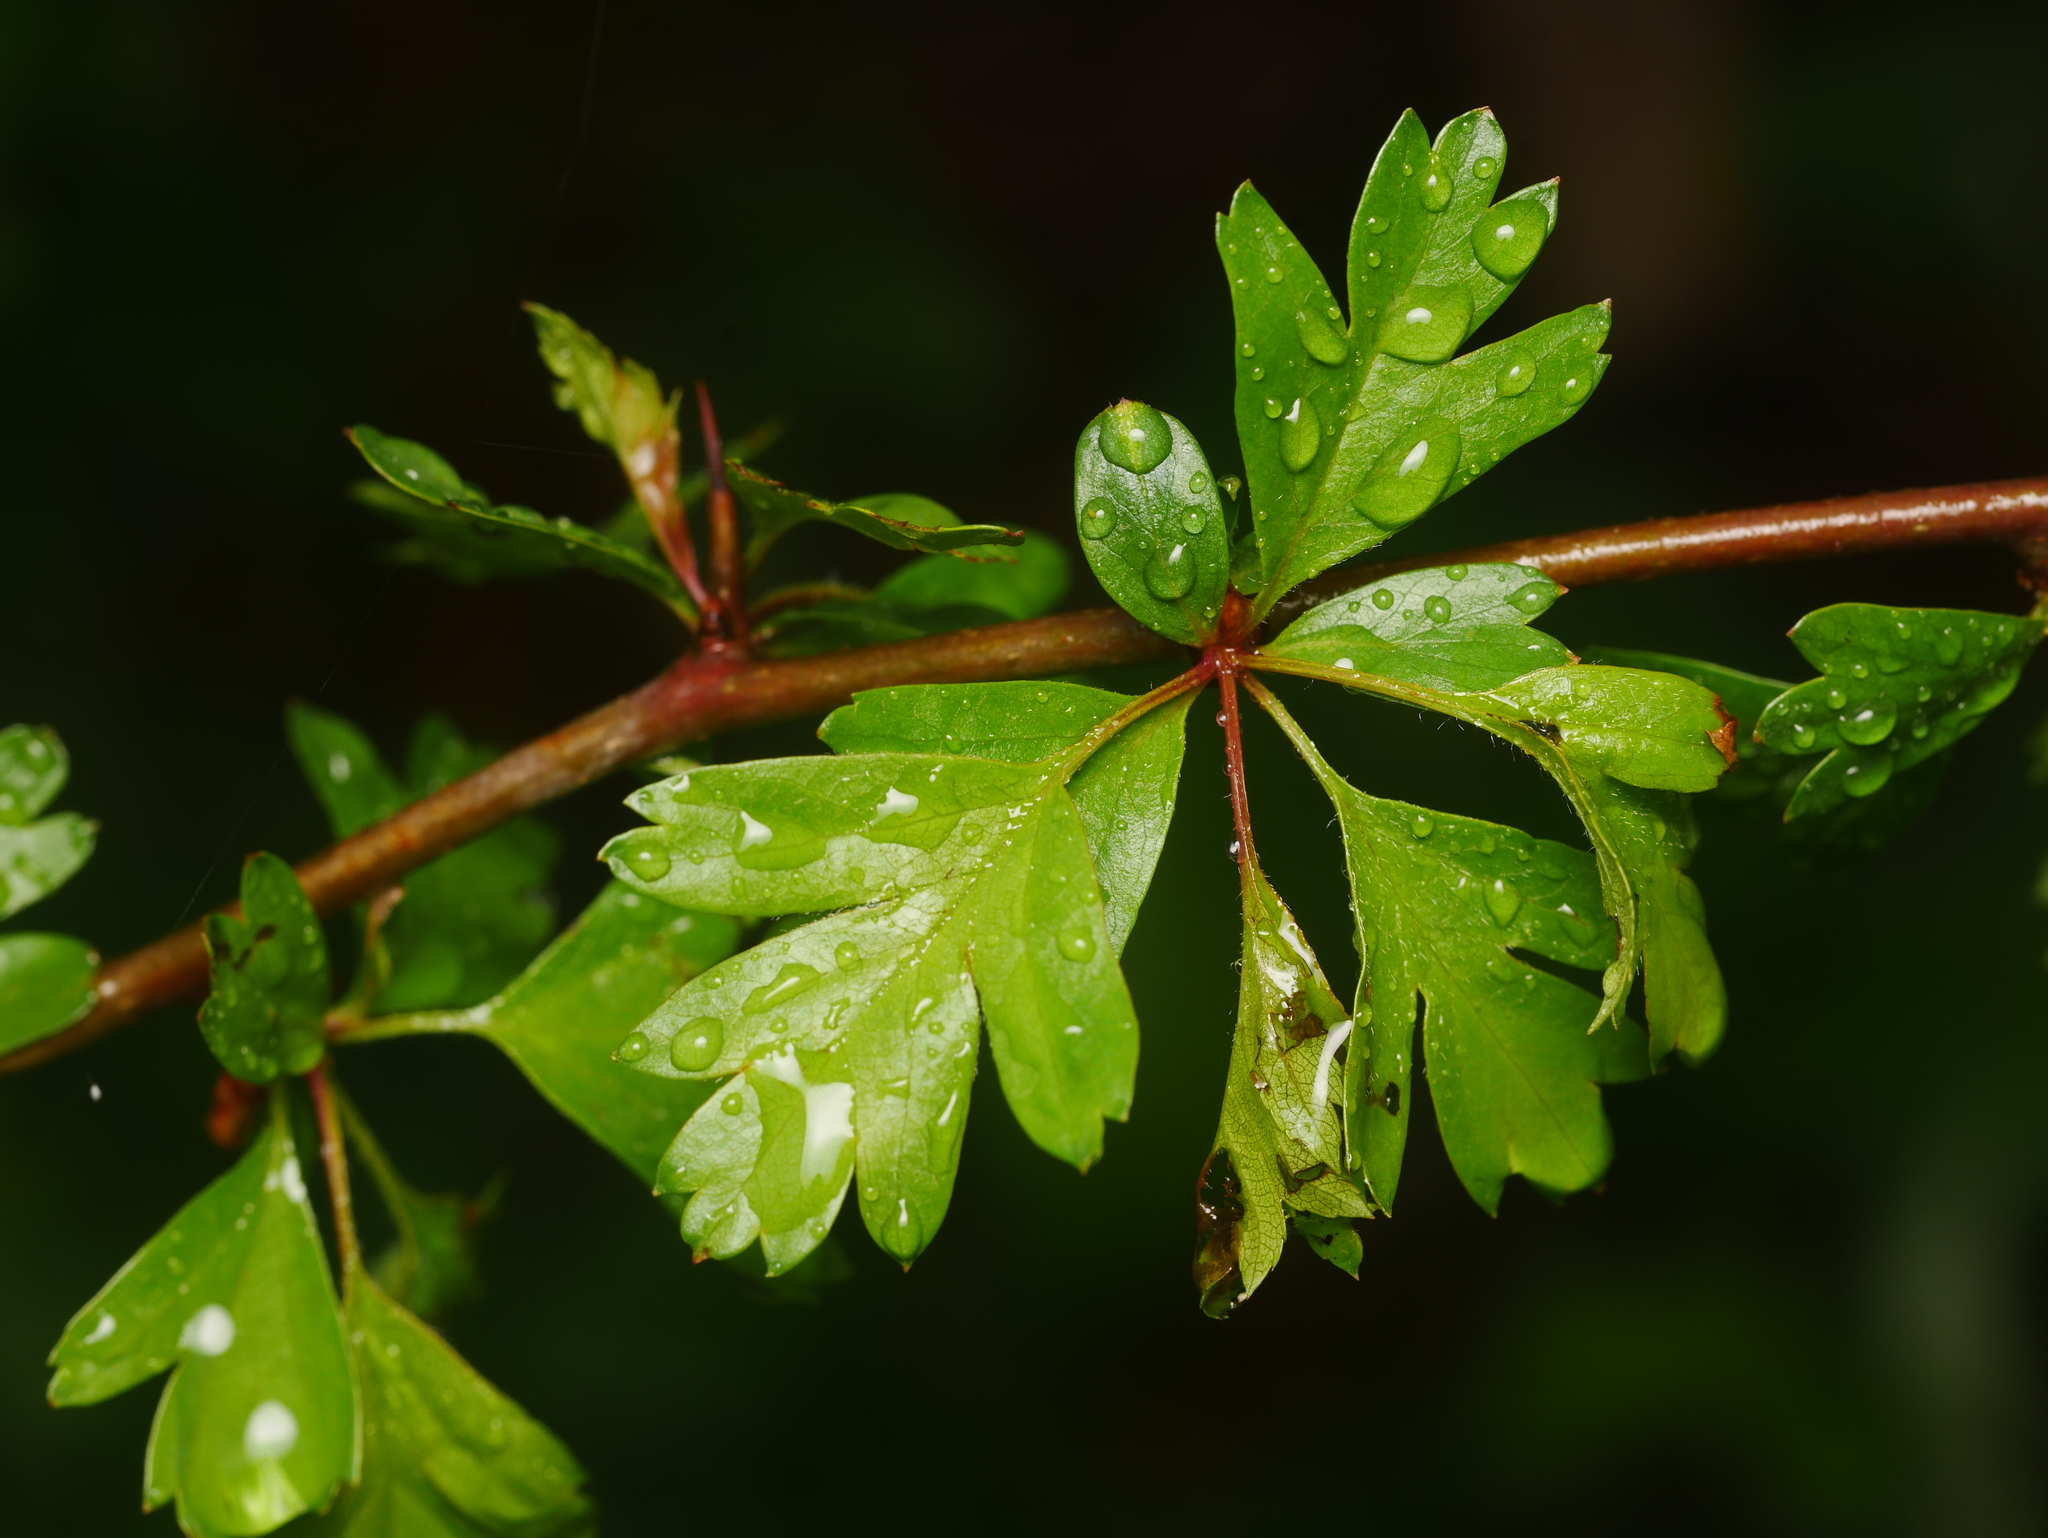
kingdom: Plantae
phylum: Tracheophyta
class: Magnoliopsida
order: Rosales
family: Rosaceae
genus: Crataegus
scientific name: Crataegus monogyna
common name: Hawthorn
